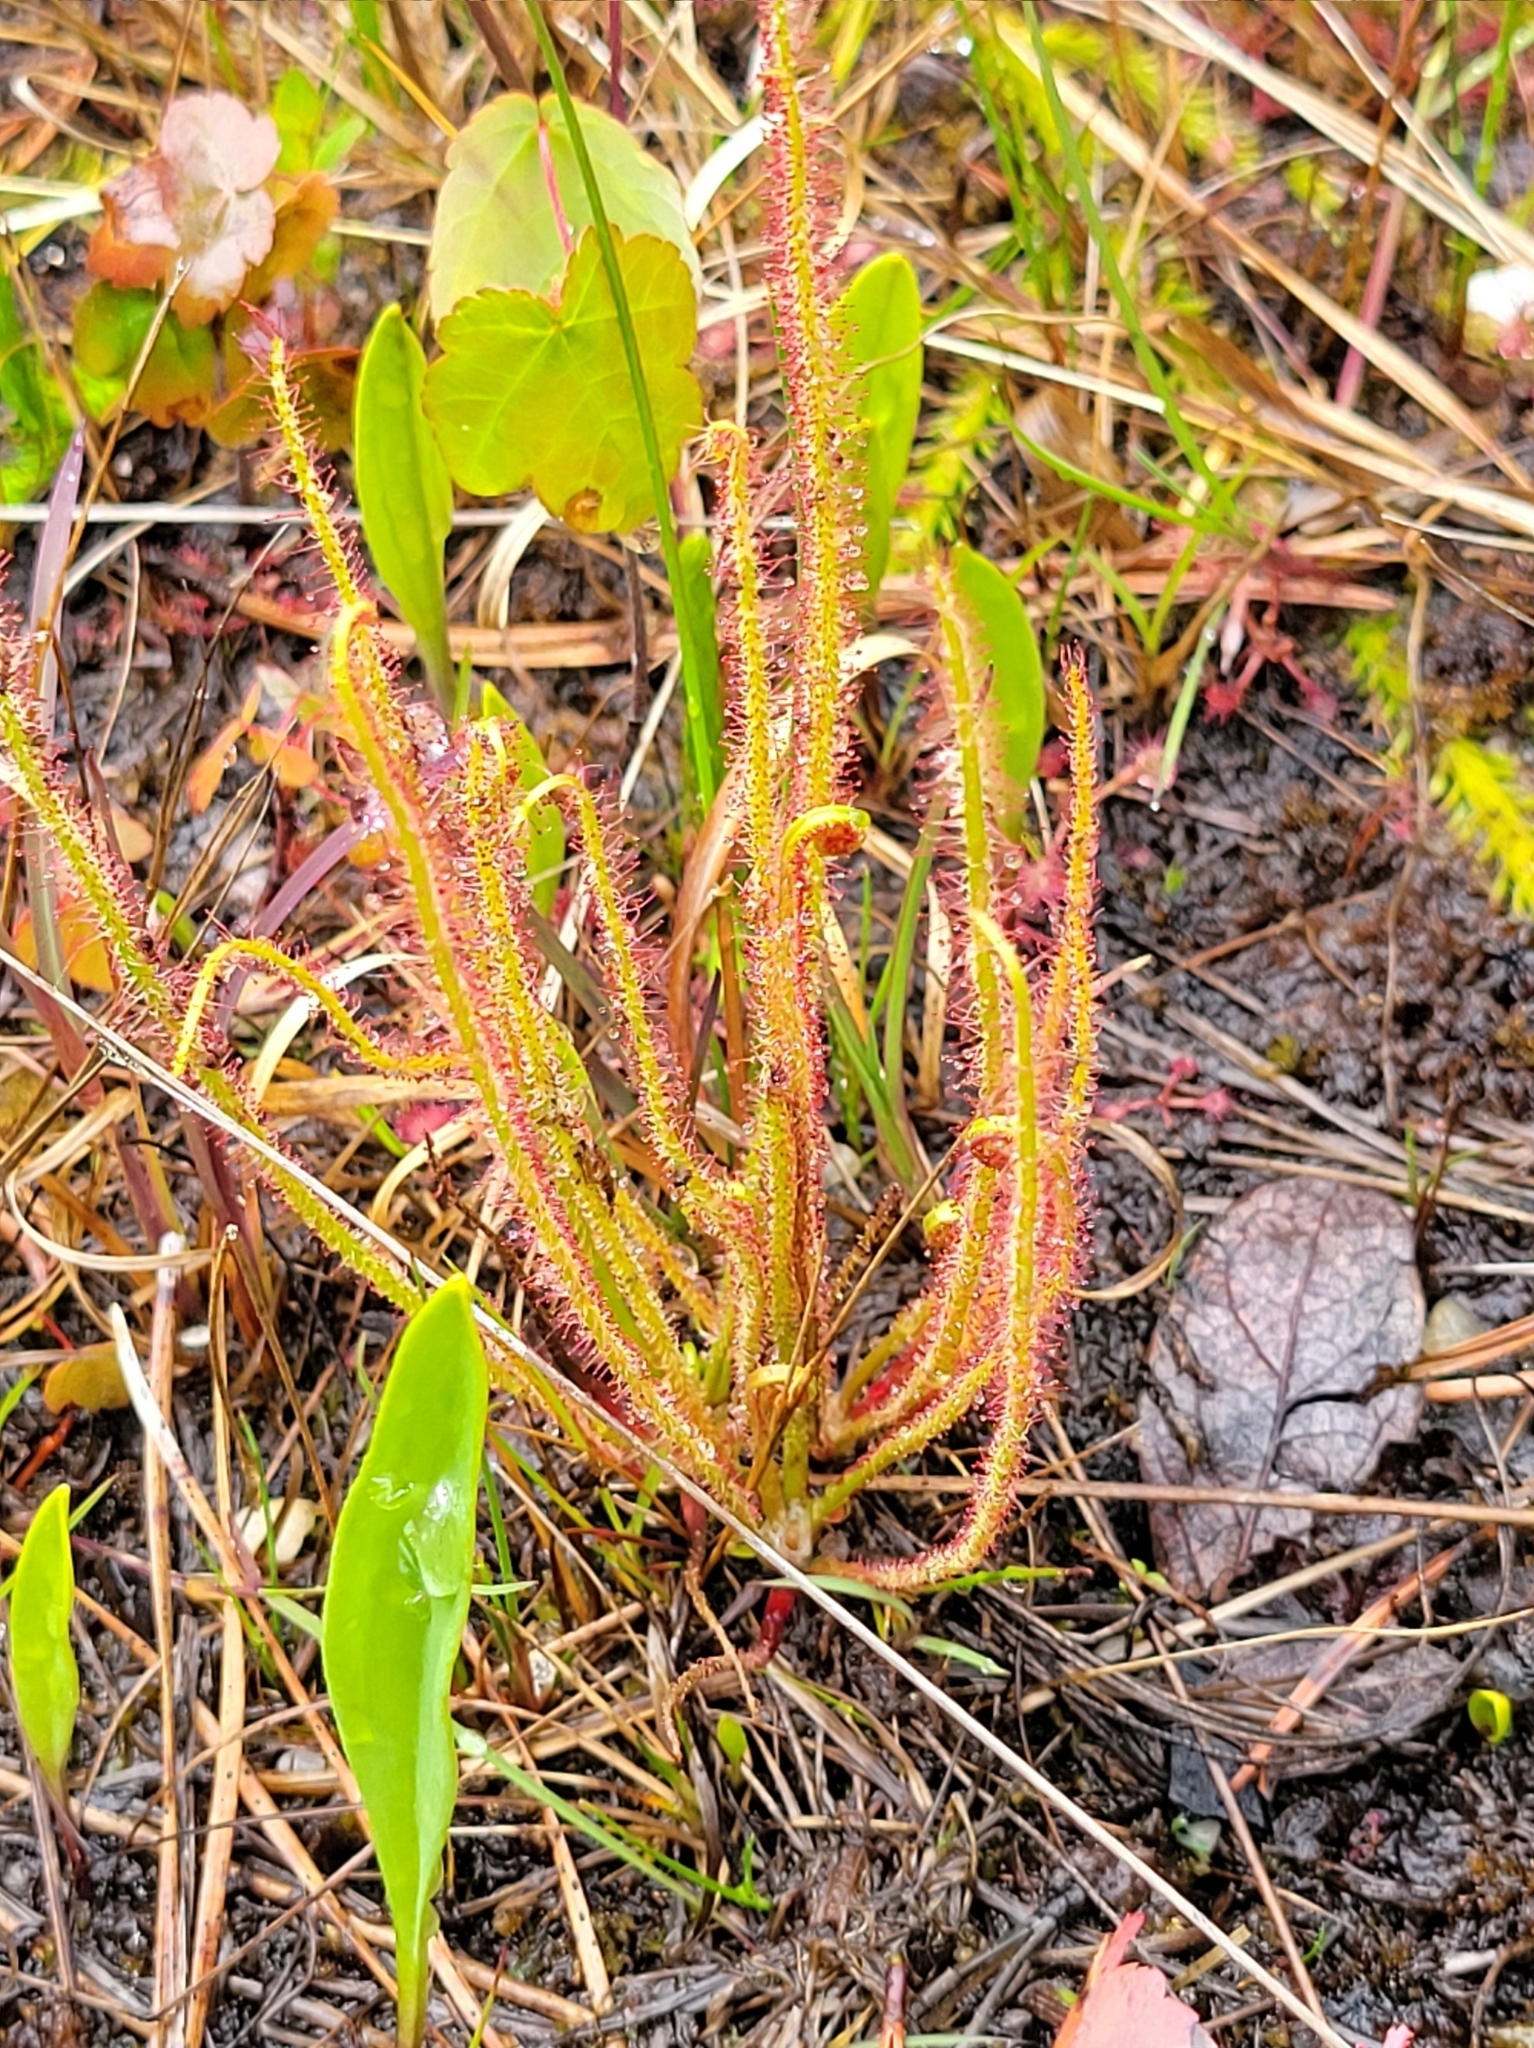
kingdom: Plantae
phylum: Tracheophyta
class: Magnoliopsida
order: Caryophyllales
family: Droseraceae
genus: Drosera
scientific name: Drosera filiformis
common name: Dew-thread
